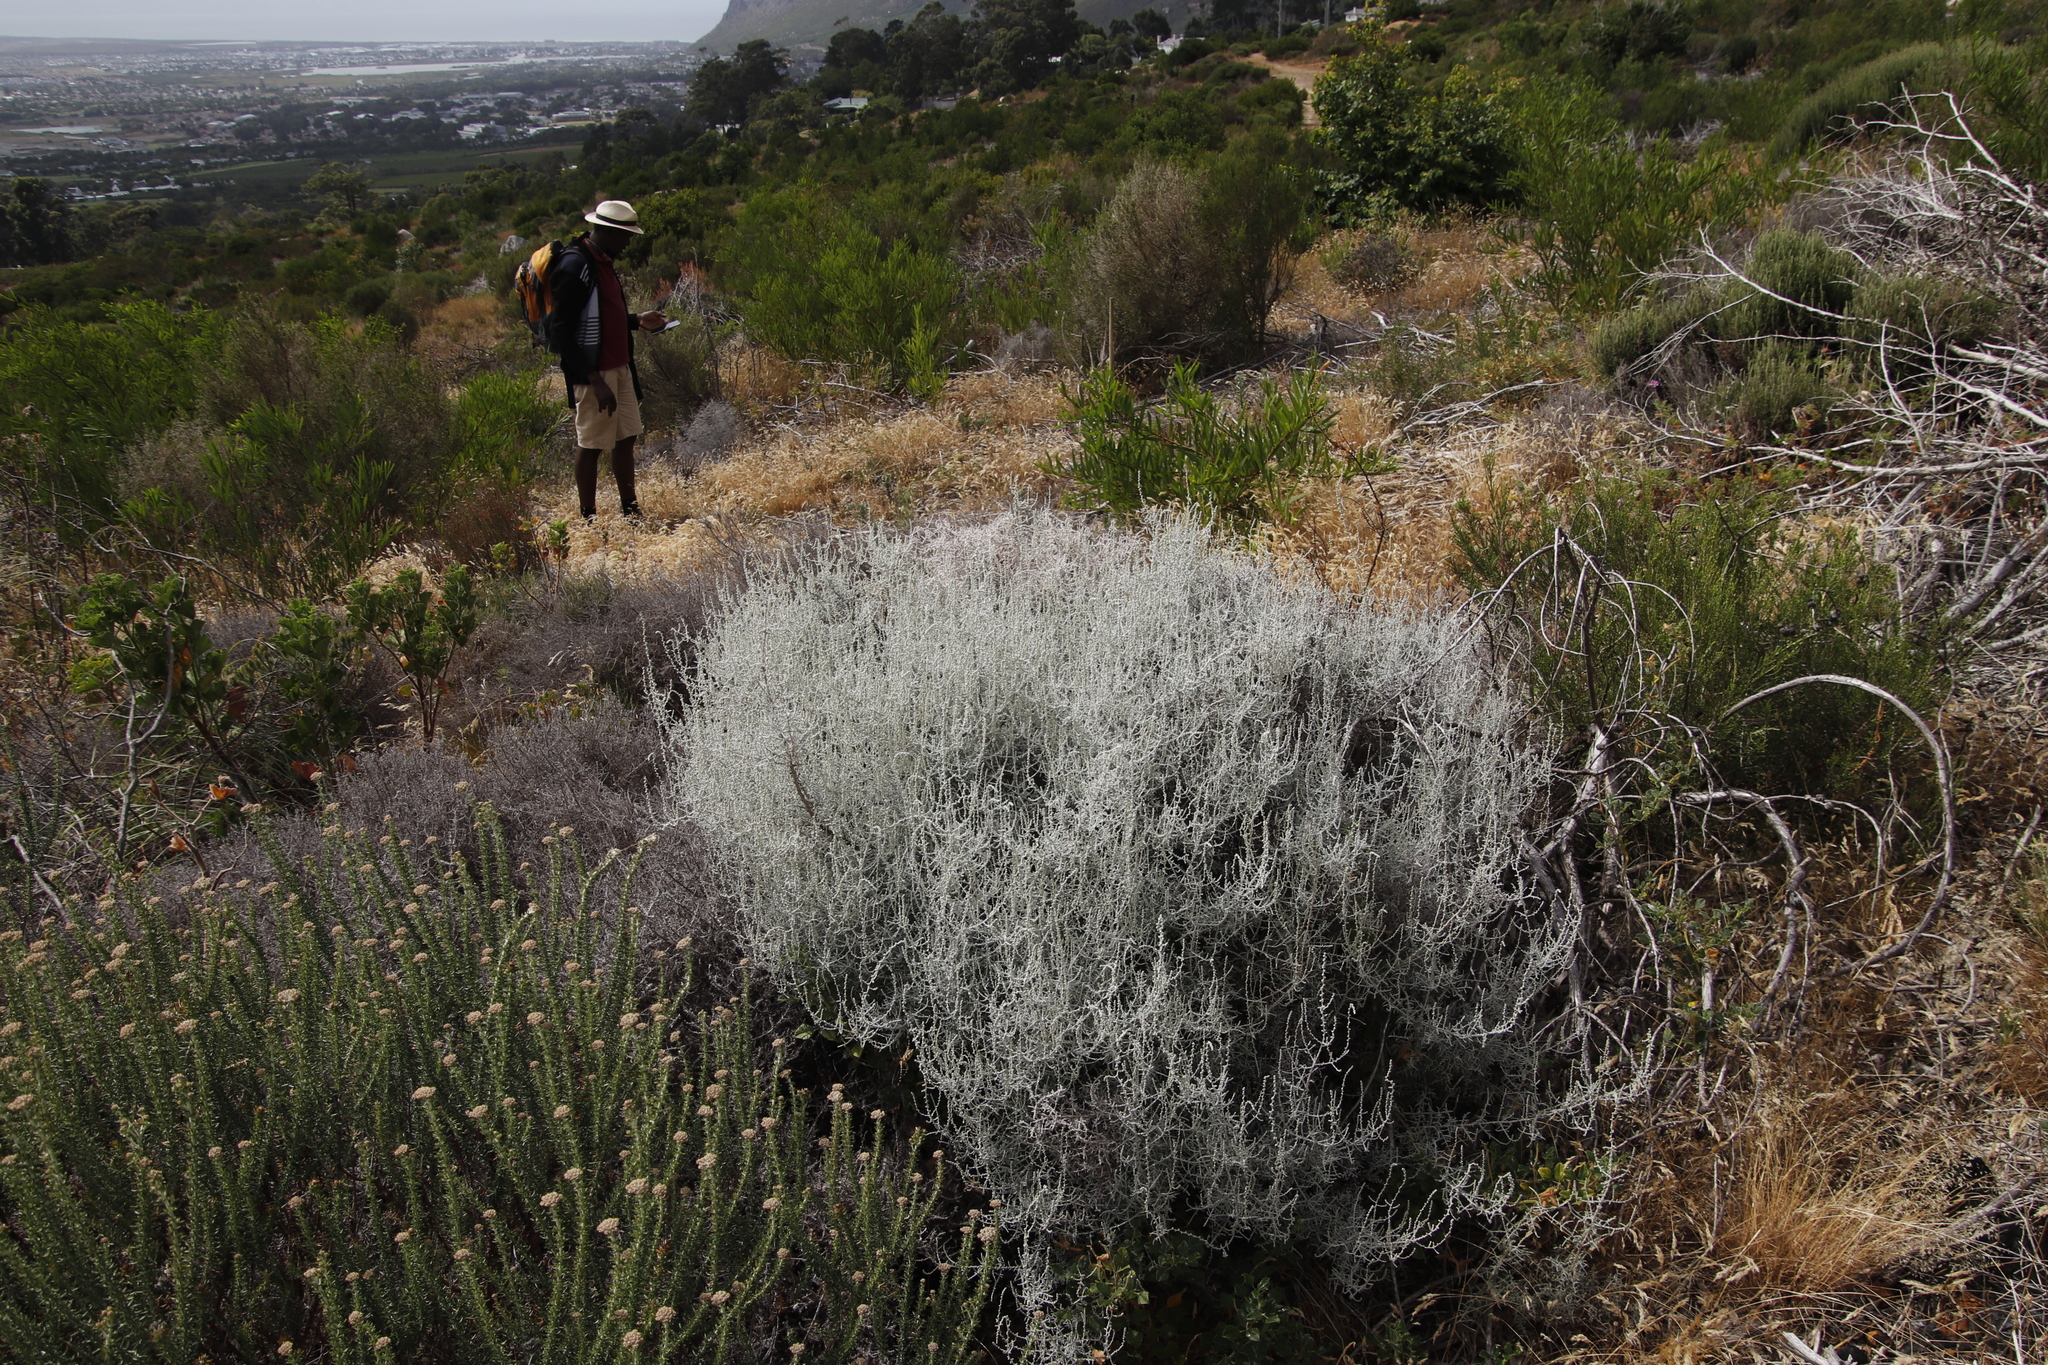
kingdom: Plantae
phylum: Tracheophyta
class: Magnoliopsida
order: Asterales
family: Asteraceae
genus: Seriphium
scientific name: Seriphium plumosum
